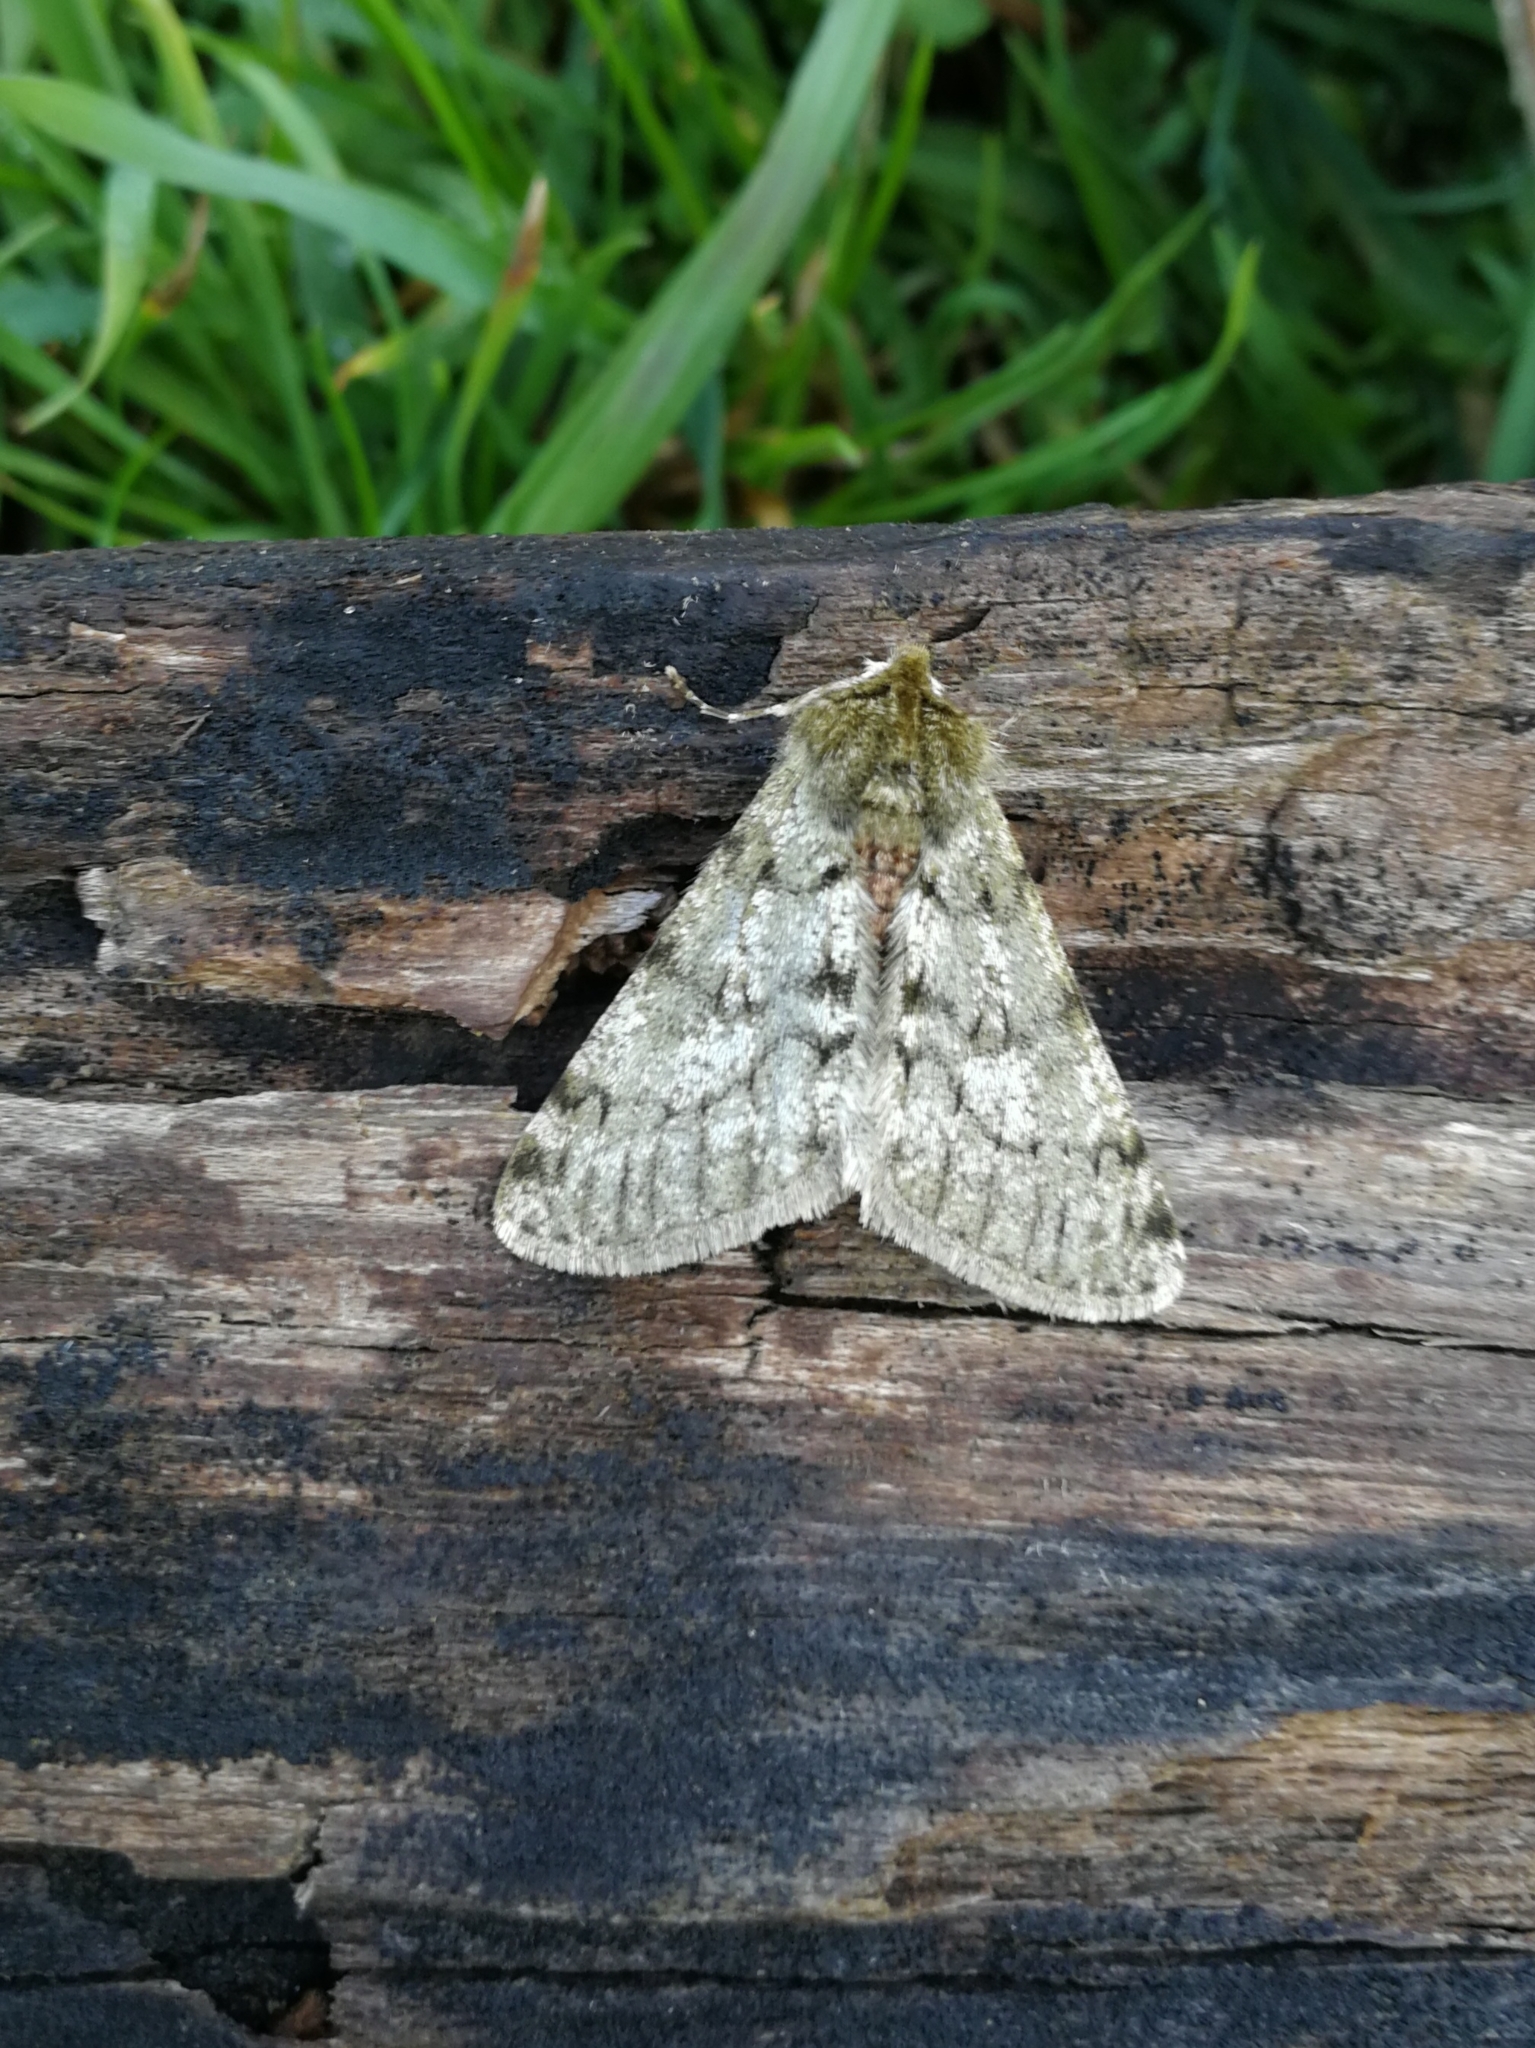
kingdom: Animalia
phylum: Arthropoda
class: Insecta
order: Lepidoptera
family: Geometridae
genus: Phigalia
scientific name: Phigalia pilosaria
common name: Pale brindled beauty
